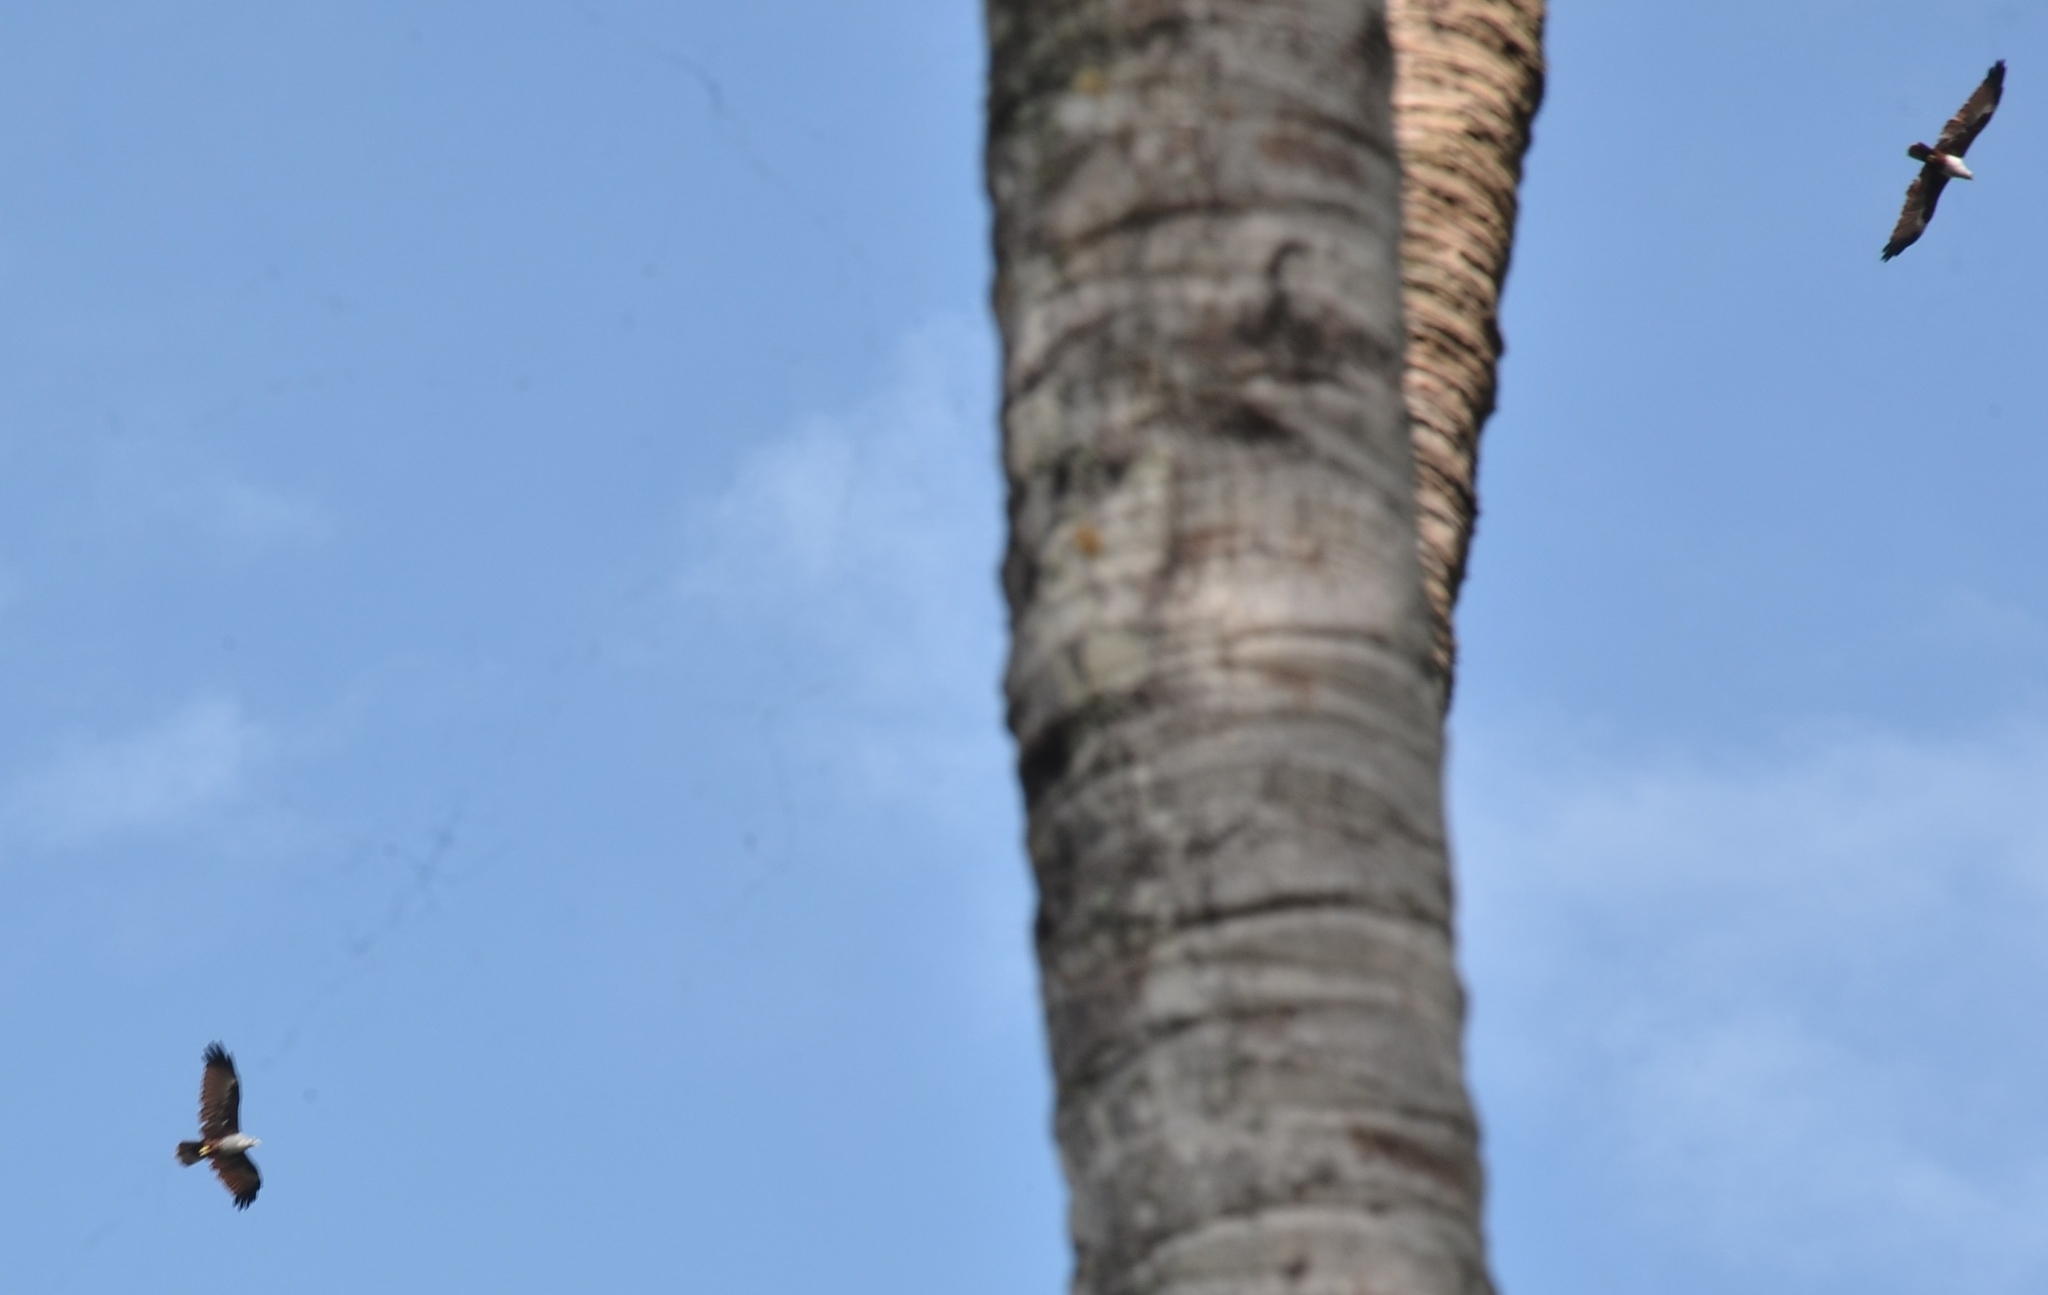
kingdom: Animalia
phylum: Chordata
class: Aves
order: Accipitriformes
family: Accipitridae
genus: Haliastur
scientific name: Haliastur indus
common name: Brahminy kite
